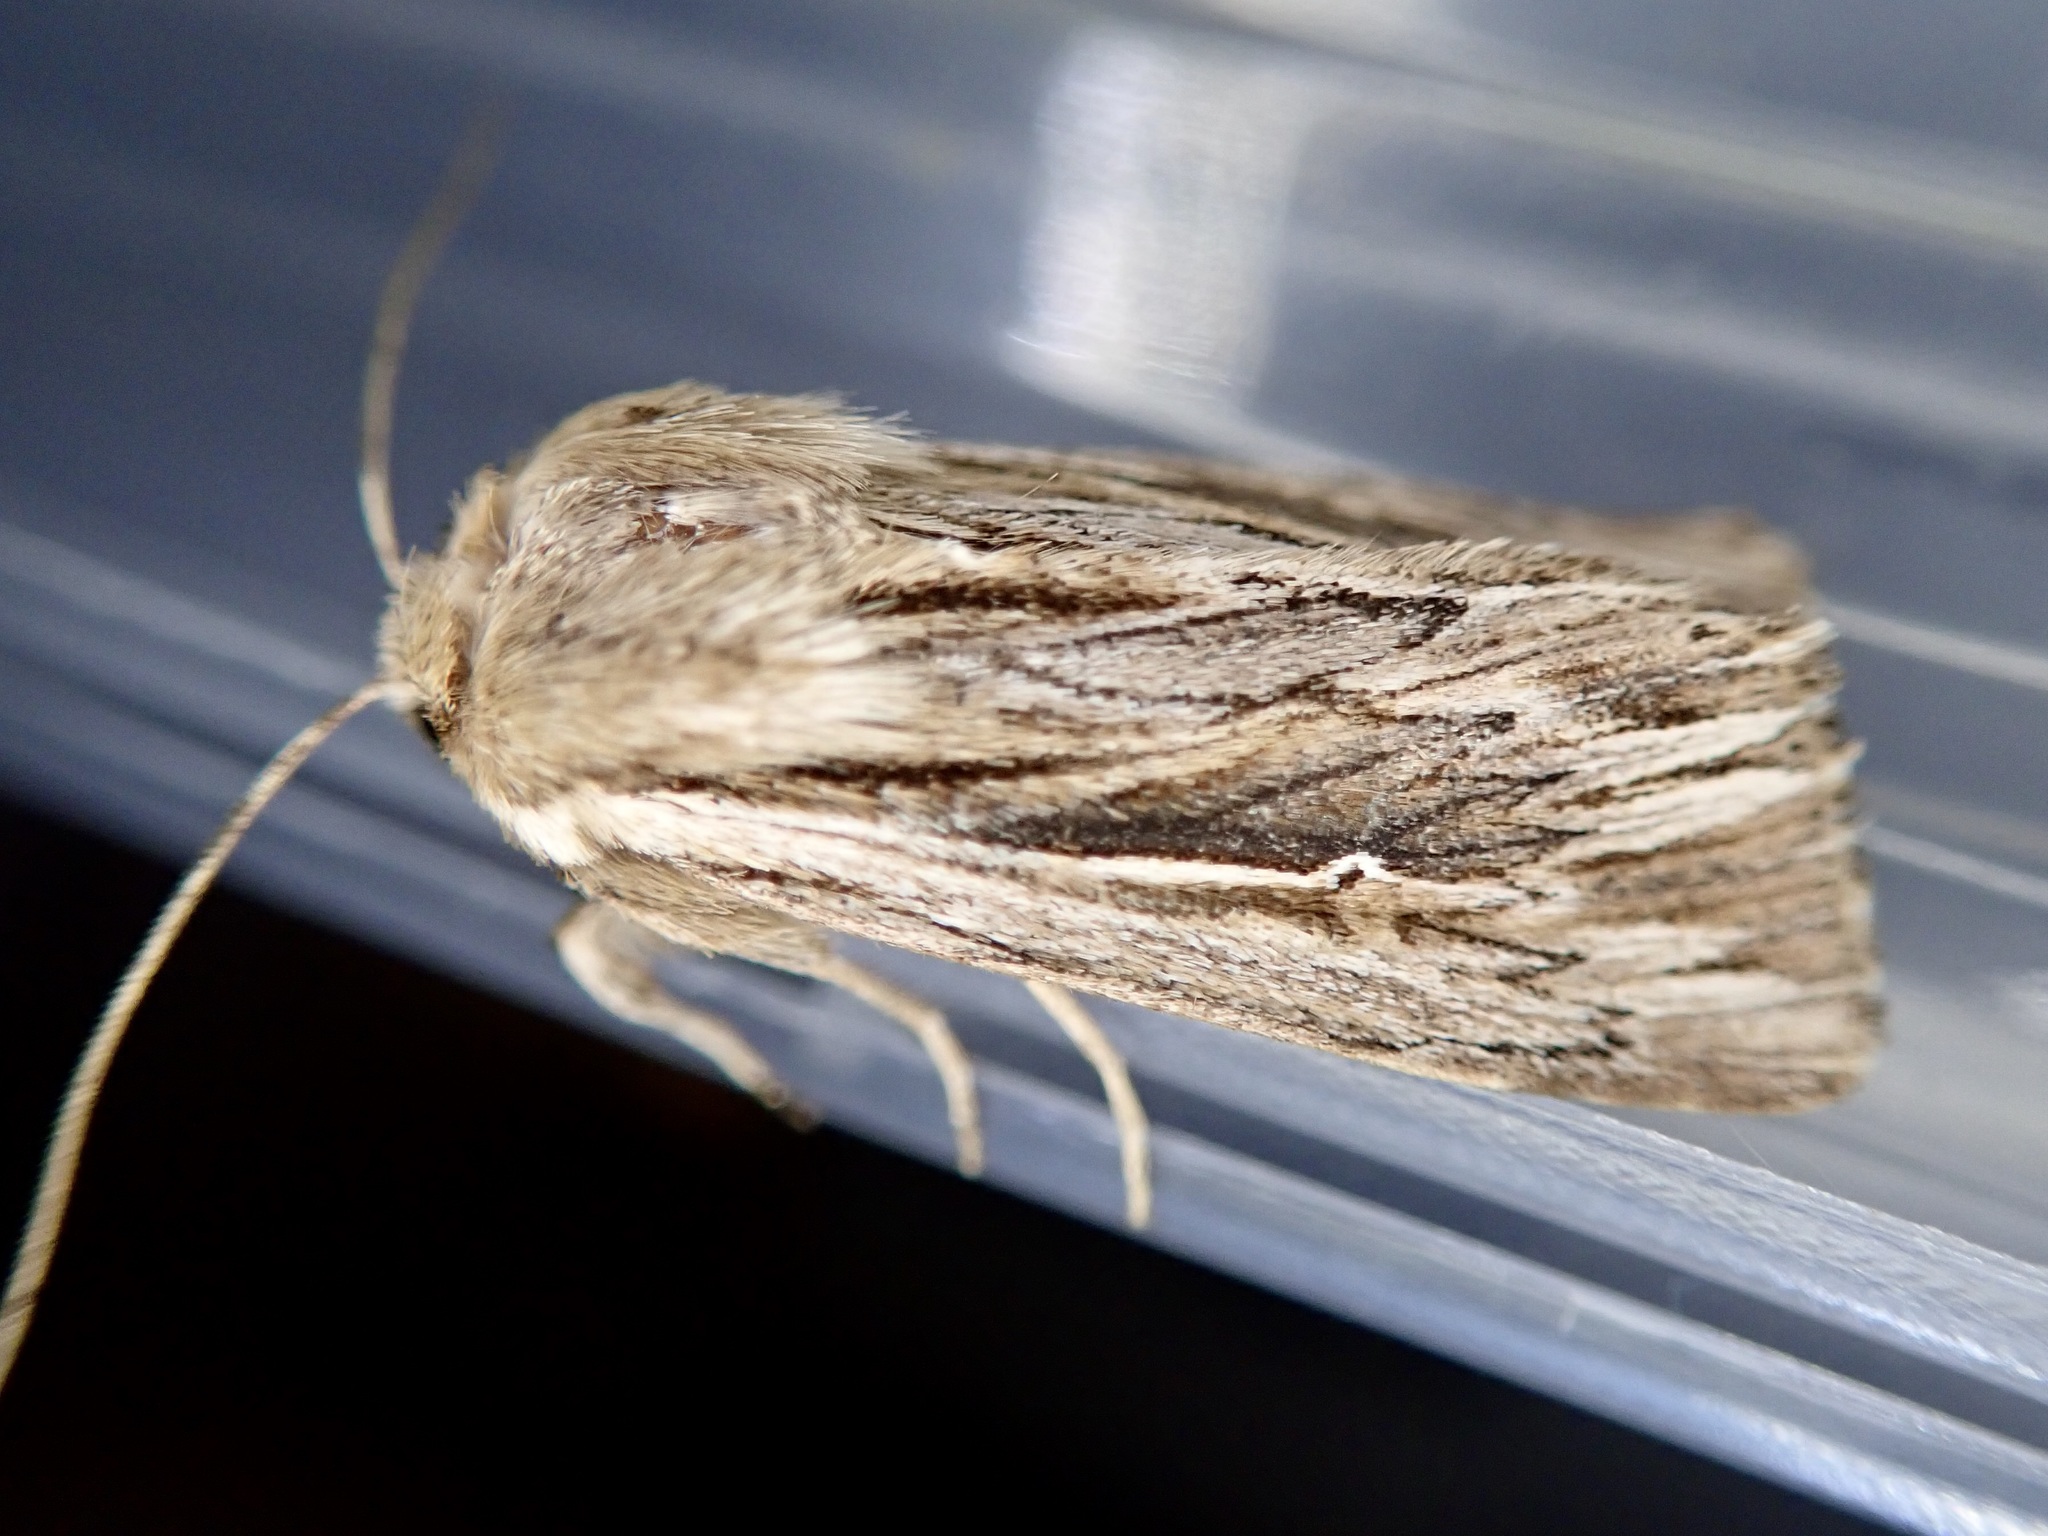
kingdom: Animalia
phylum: Arthropoda
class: Insecta
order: Lepidoptera
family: Noctuidae
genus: Persectania
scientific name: Persectania aversa
